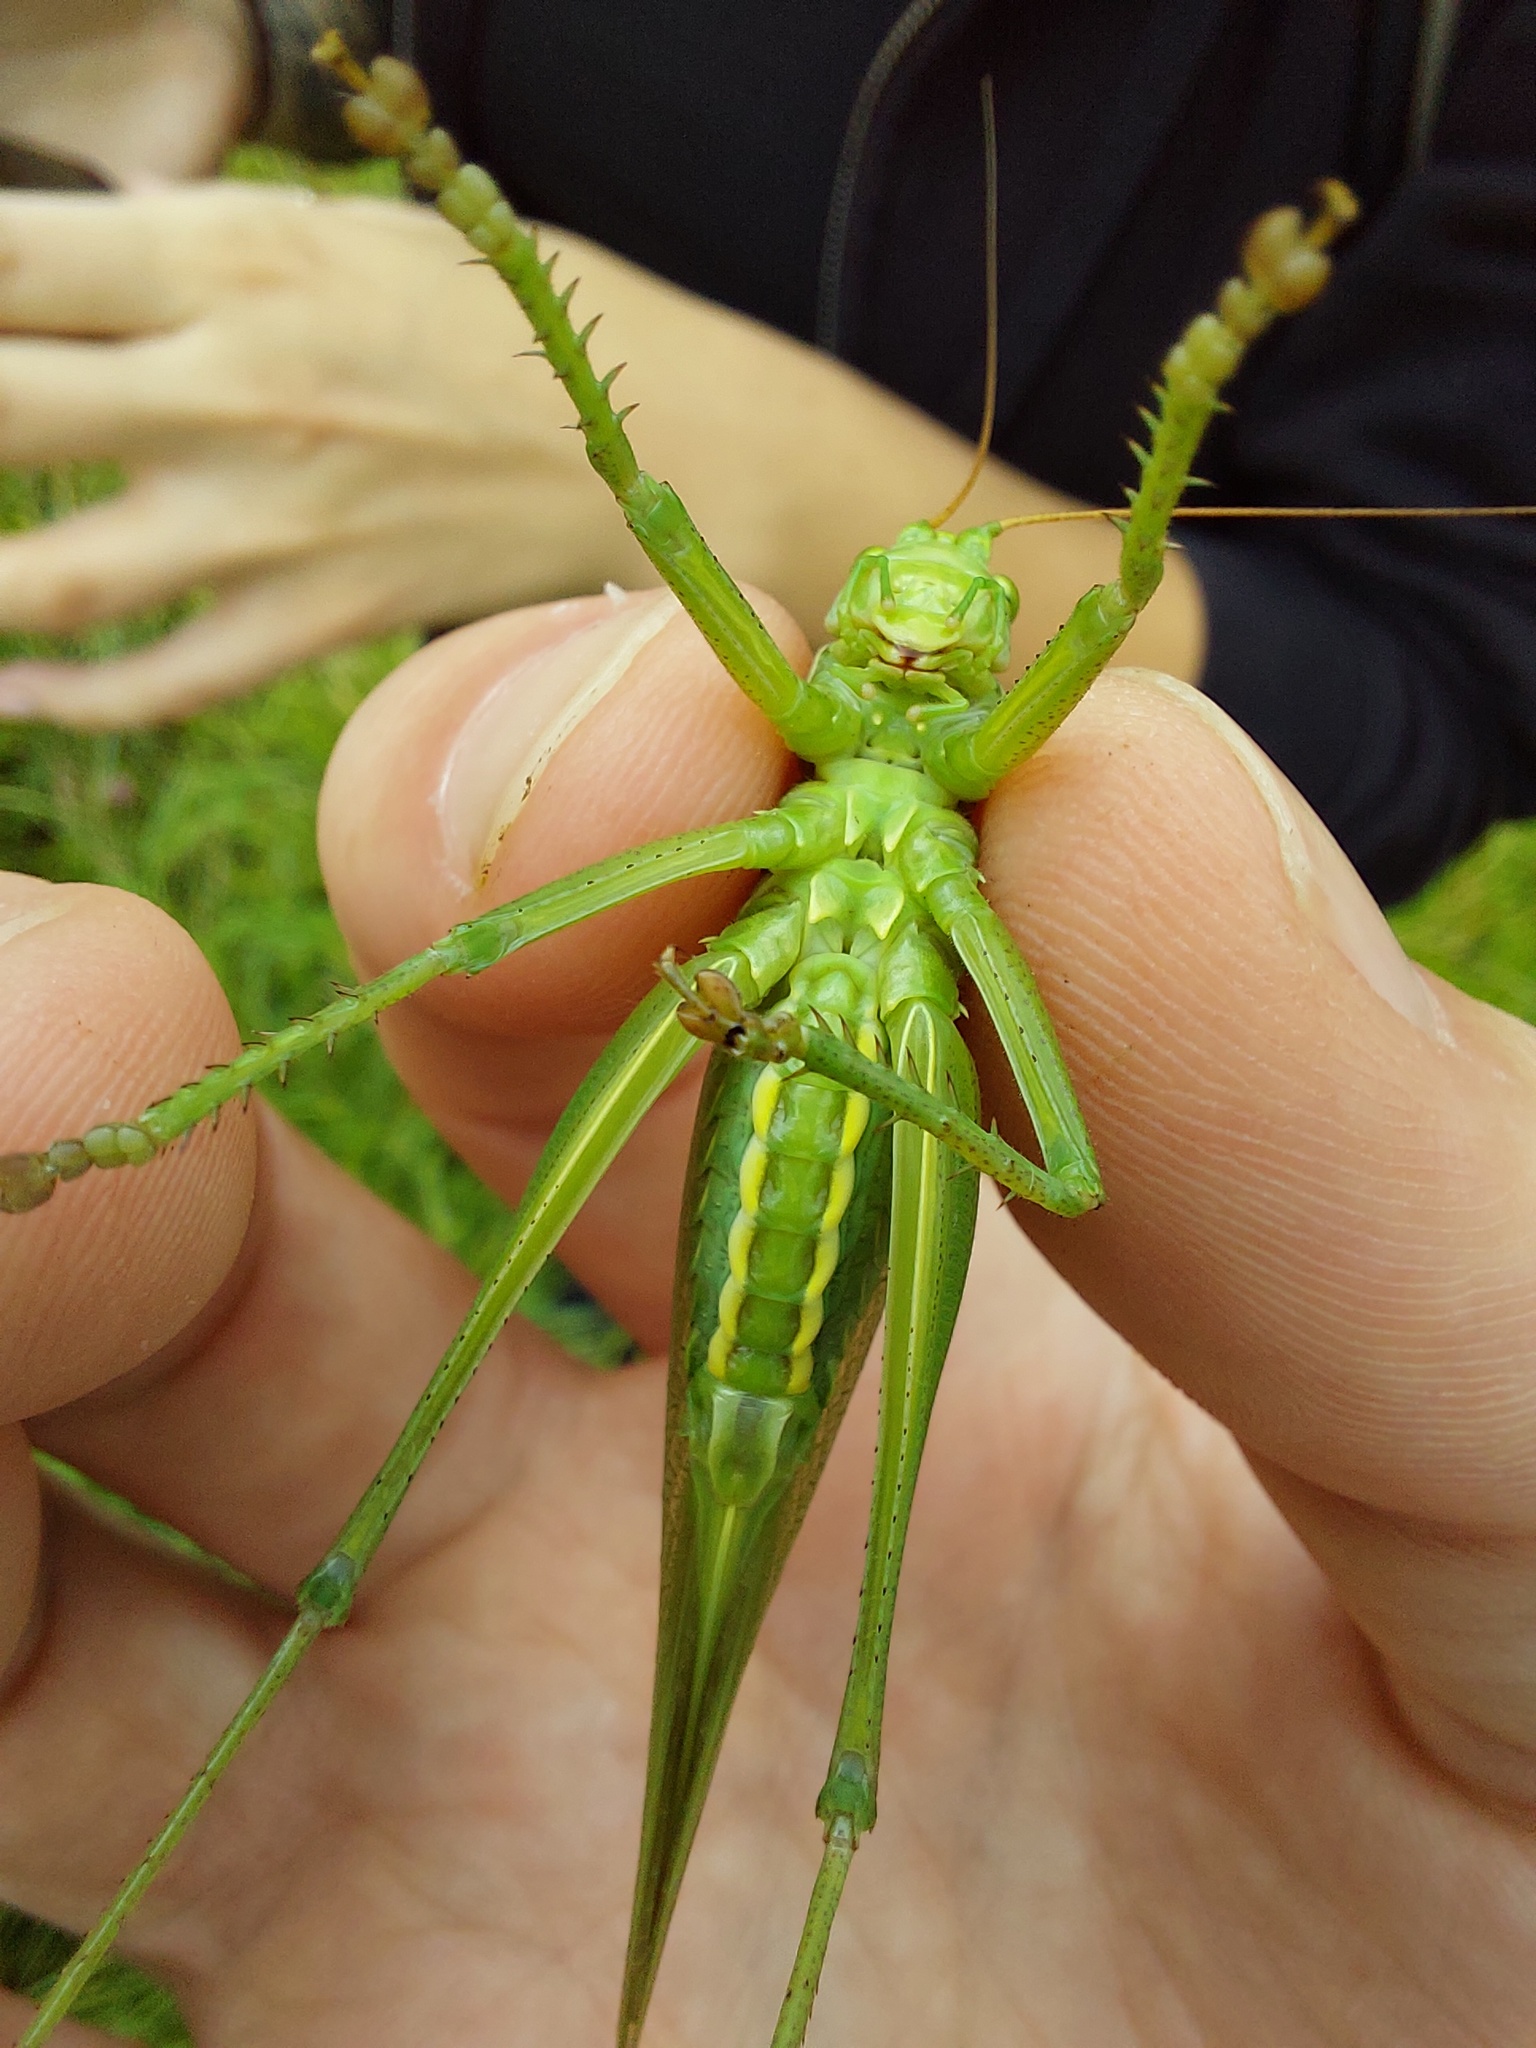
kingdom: Animalia
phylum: Arthropoda
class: Insecta
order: Orthoptera
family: Tettigoniidae
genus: Tettigonia
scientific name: Tettigonia viridissima
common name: Great green bush-cricket
